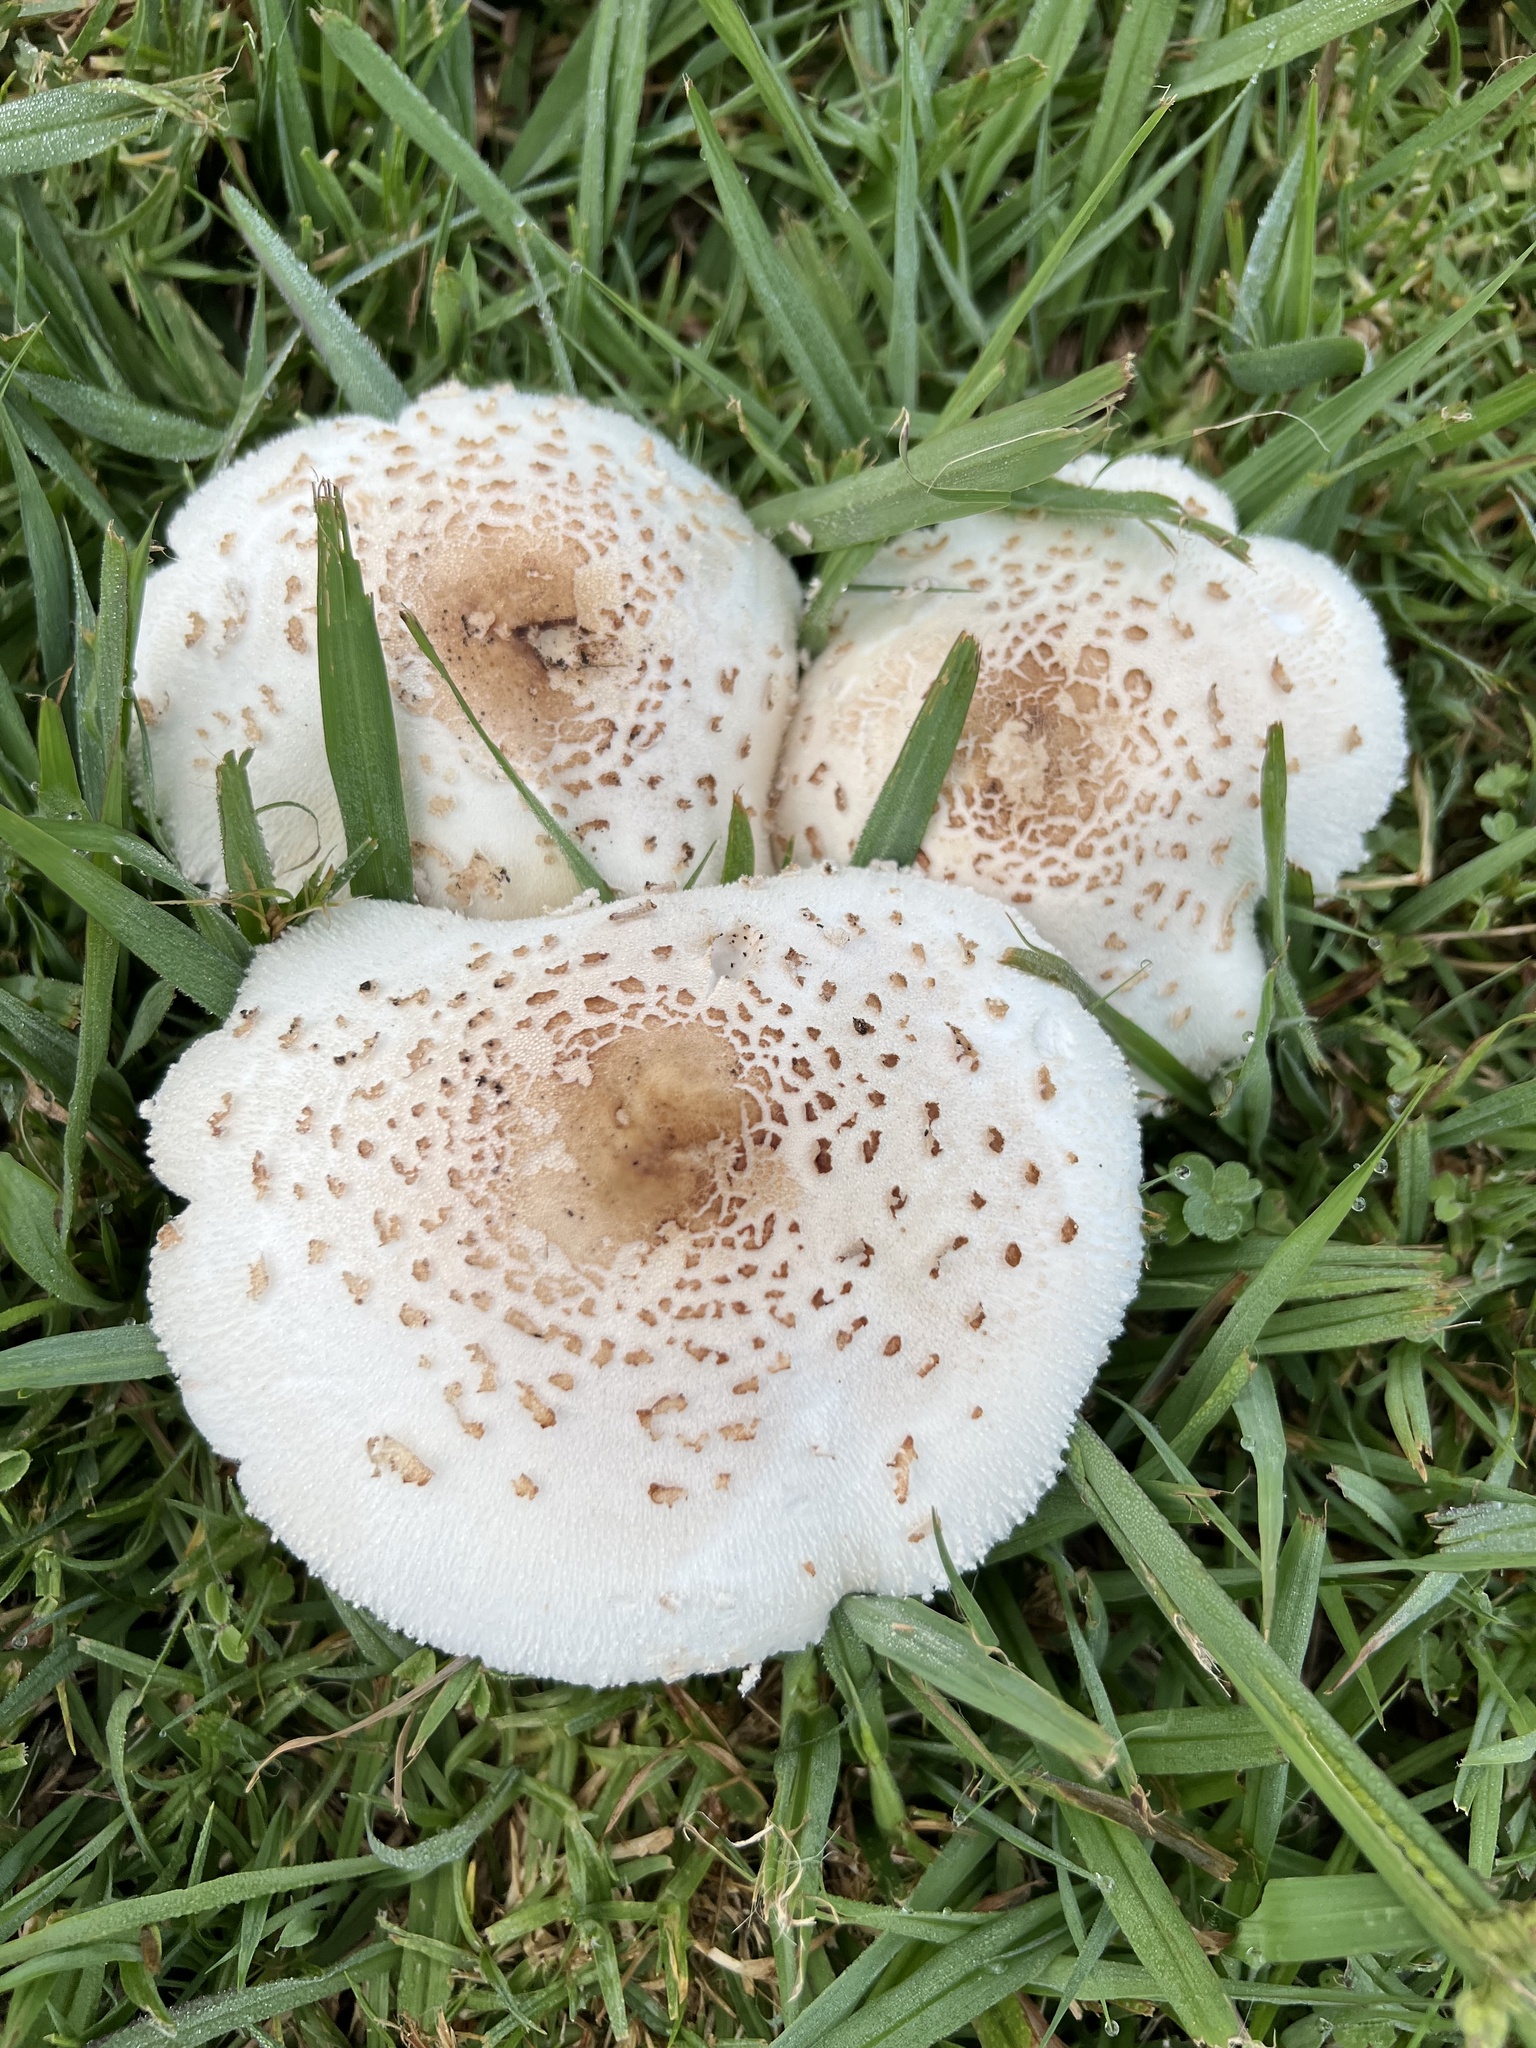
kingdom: Fungi
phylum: Basidiomycota
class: Agaricomycetes
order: Agaricales
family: Agaricaceae
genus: Chlorophyllum
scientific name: Chlorophyllum molybdites
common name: False parasol
